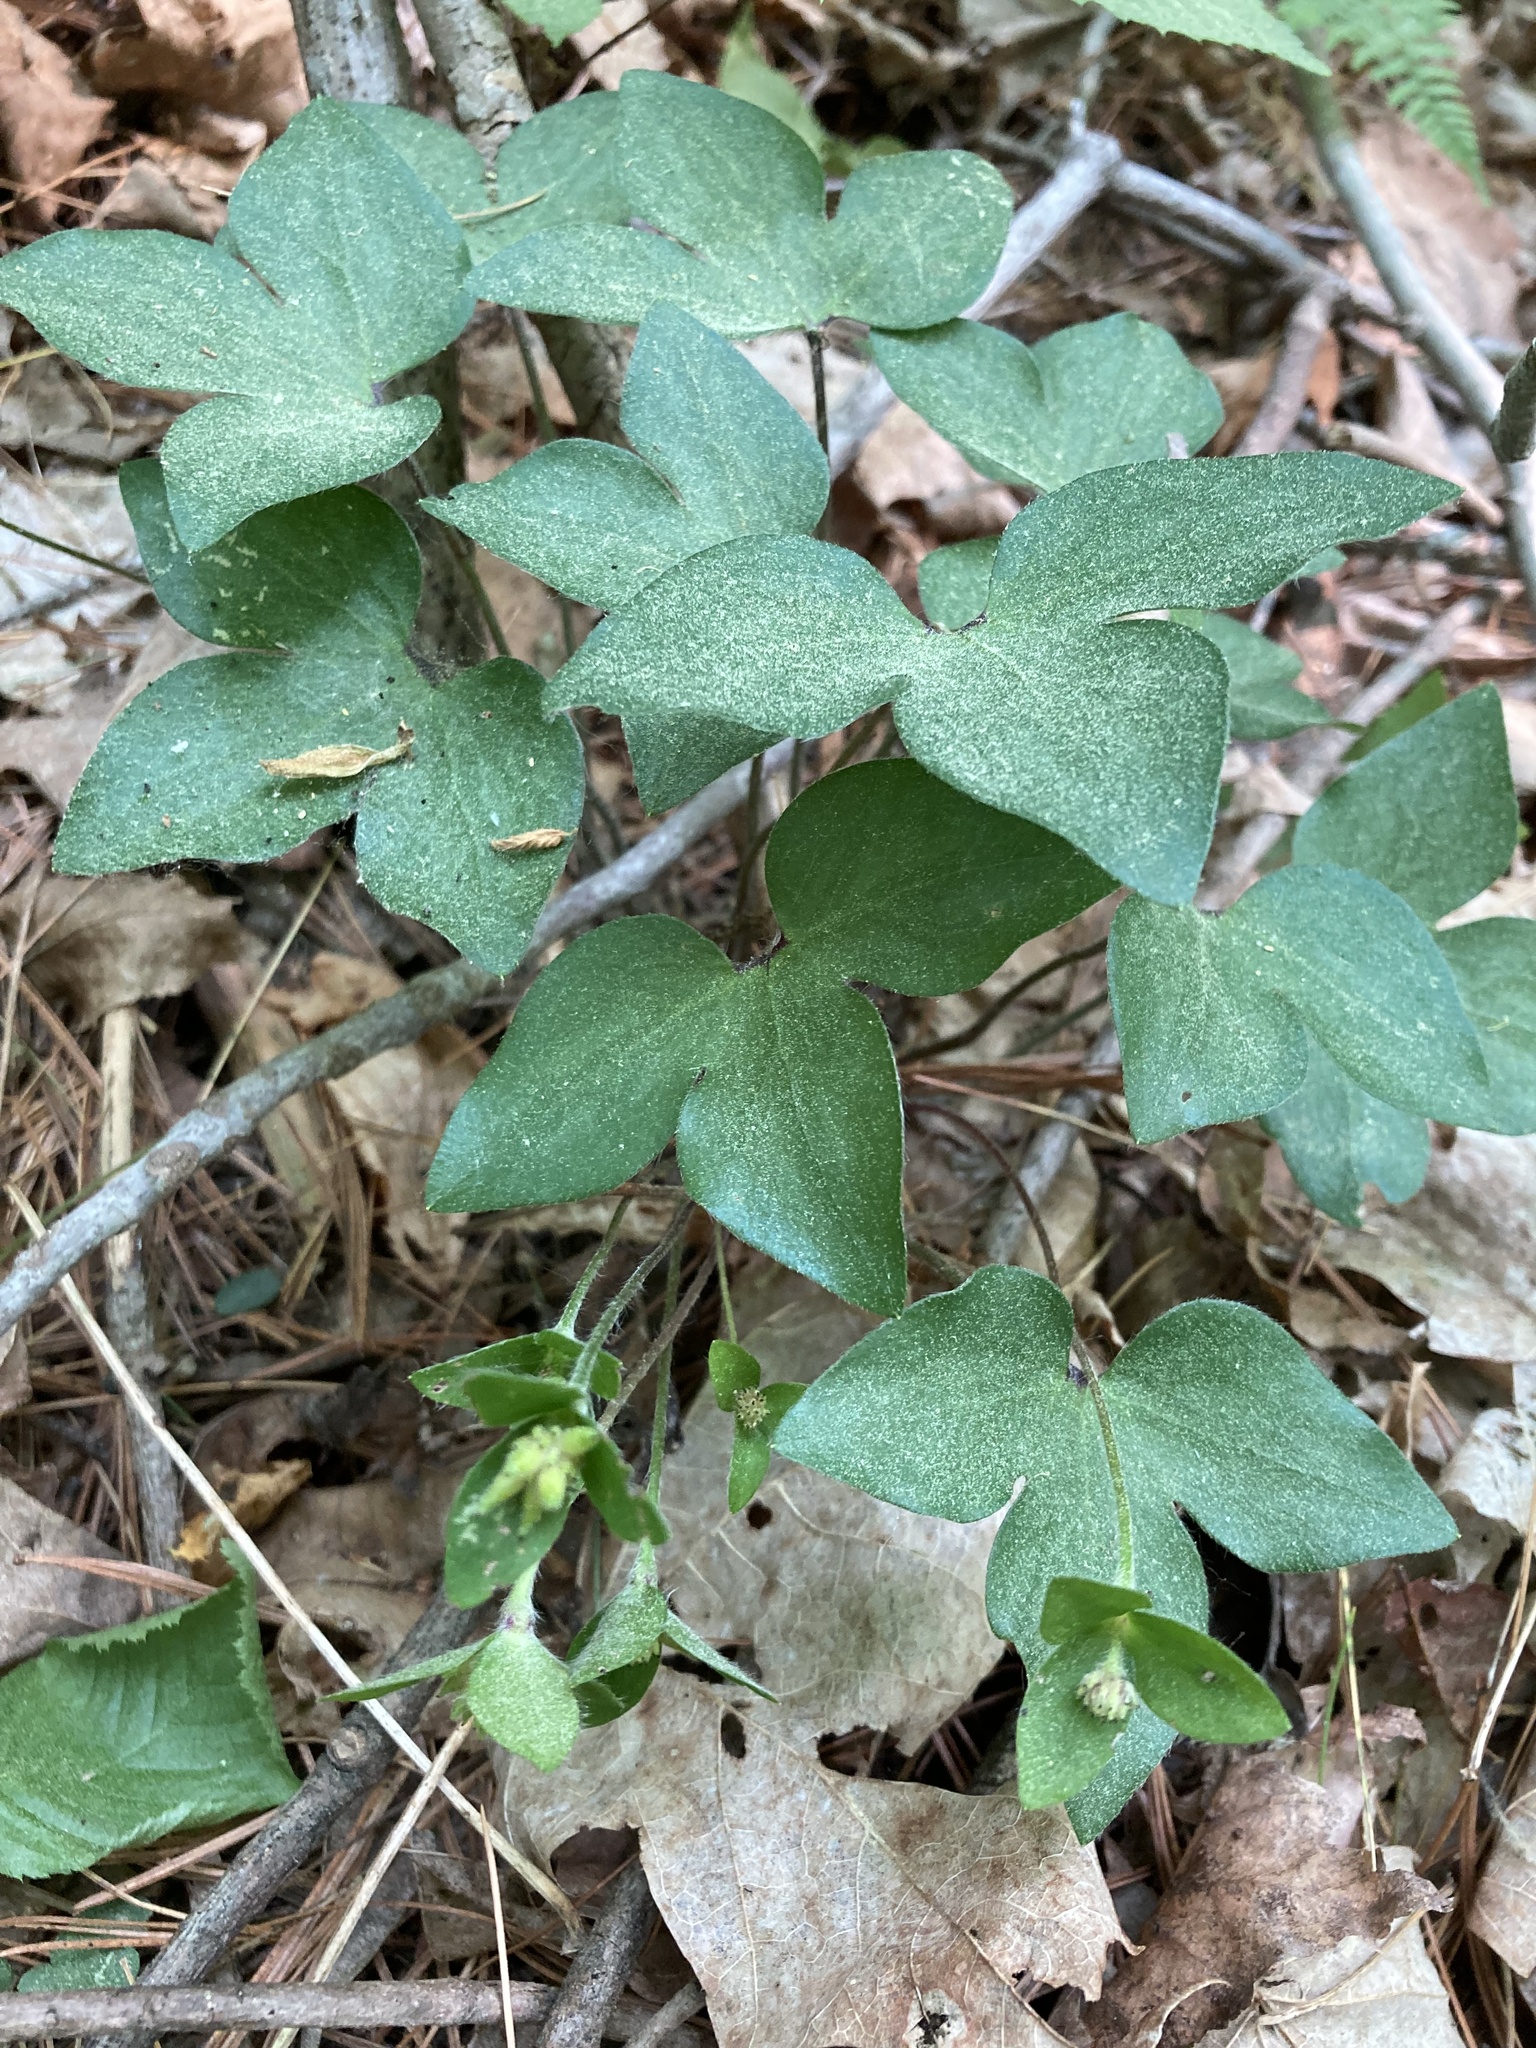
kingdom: Plantae
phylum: Tracheophyta
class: Magnoliopsida
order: Ranunculales
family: Ranunculaceae
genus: Hepatica
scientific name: Hepatica acutiloba
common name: Sharp-lobed hepatica
